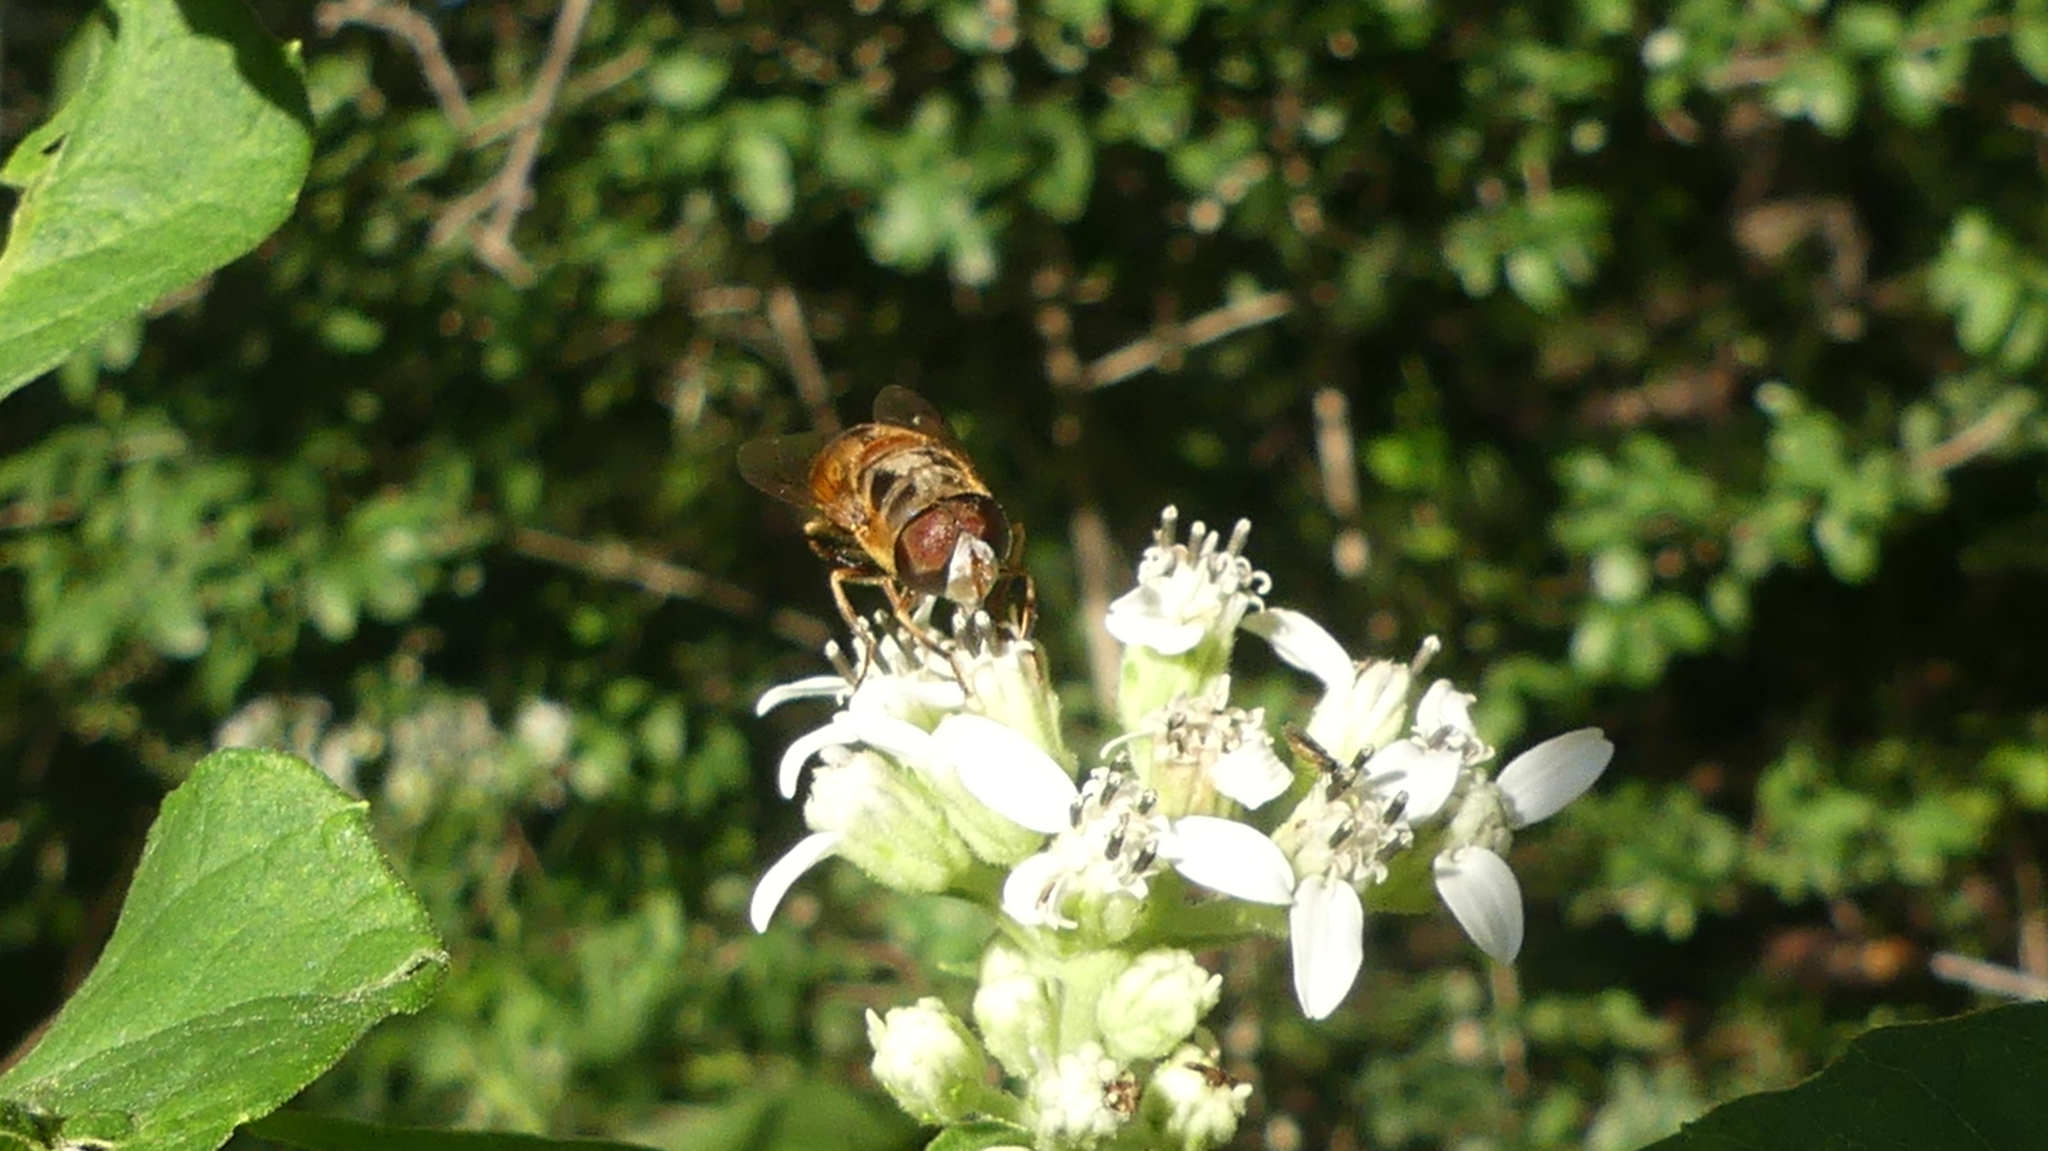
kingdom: Animalia
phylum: Arthropoda
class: Insecta
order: Diptera
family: Syrphidae
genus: Palpada
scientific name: Palpada vinetorum
